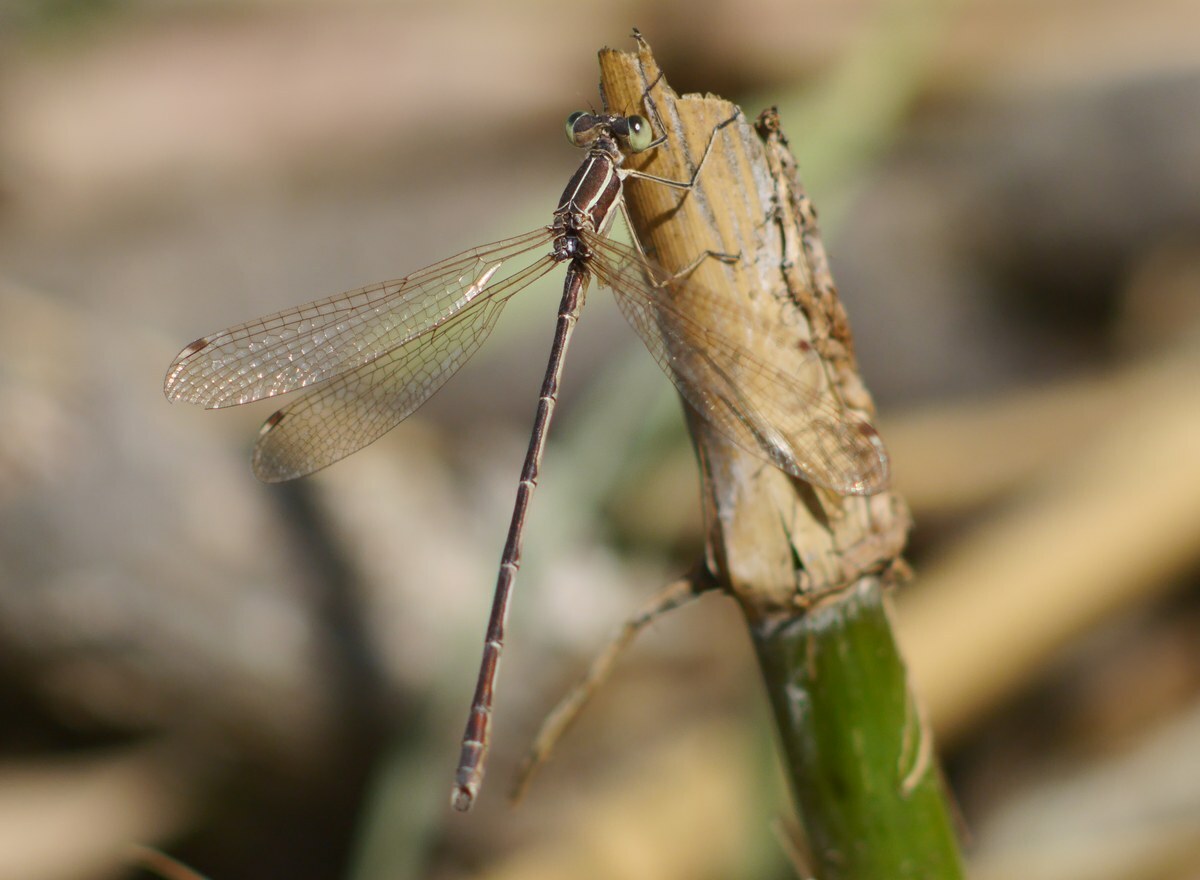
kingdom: Animalia
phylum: Arthropoda
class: Insecta
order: Odonata
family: Lestidae
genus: Lestes
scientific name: Lestes barbarus
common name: Migrant spreadwing
